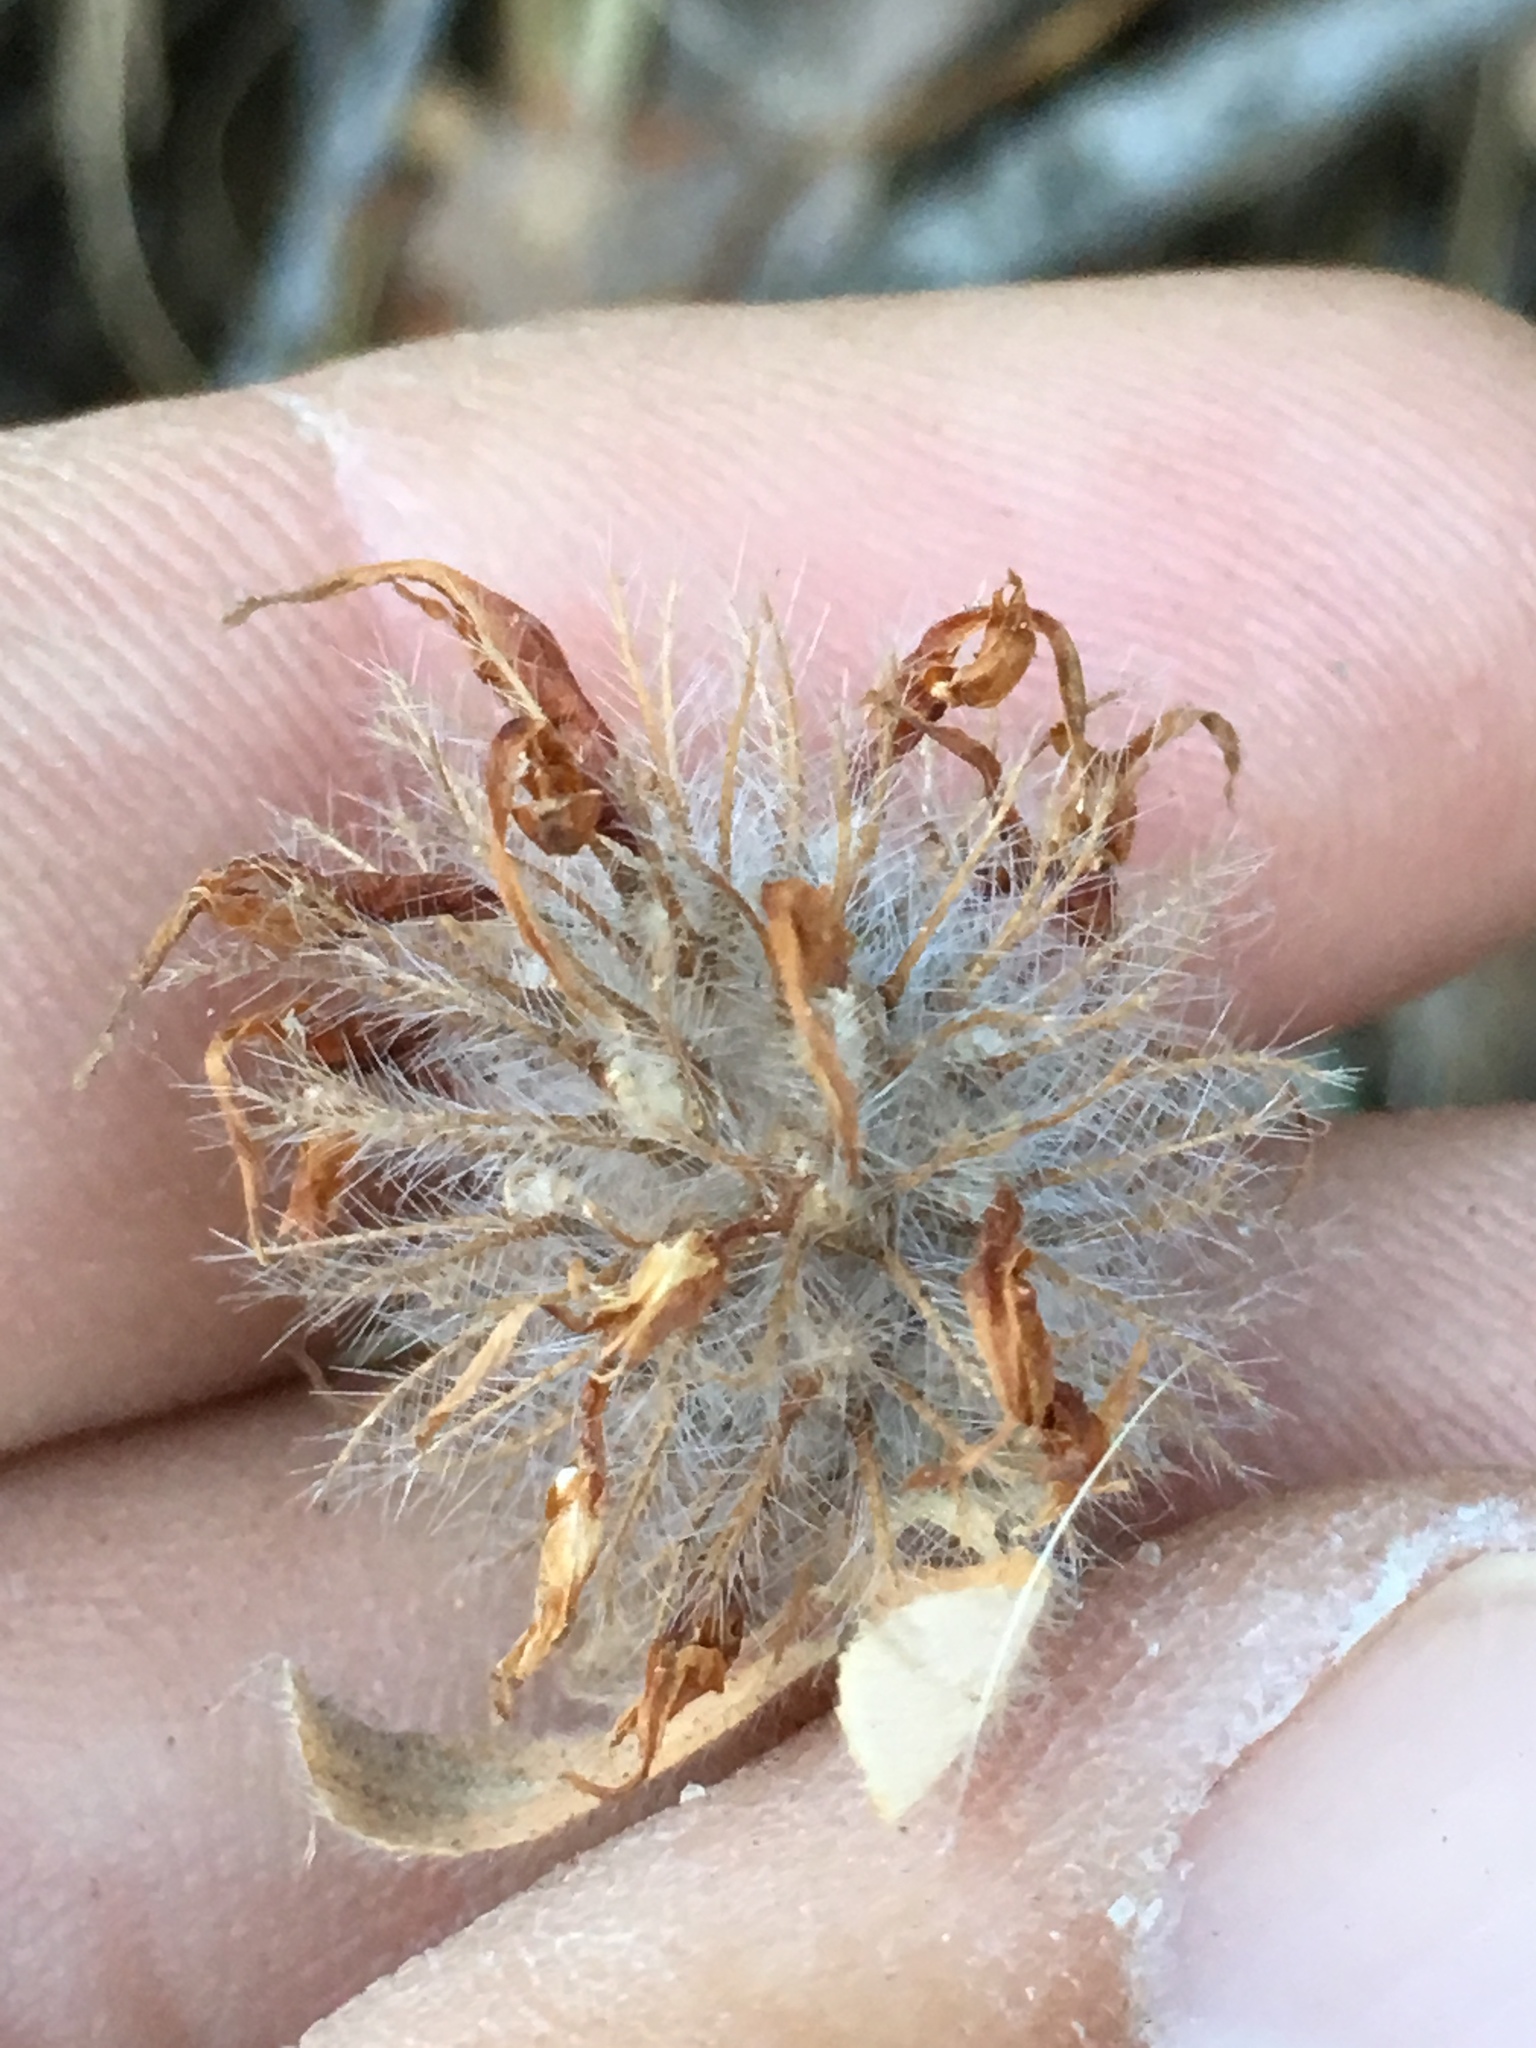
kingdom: Plantae
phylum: Tracheophyta
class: Magnoliopsida
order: Fabales
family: Fabaceae
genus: Trifolium
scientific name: Trifolium hirtum
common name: Rose clover
